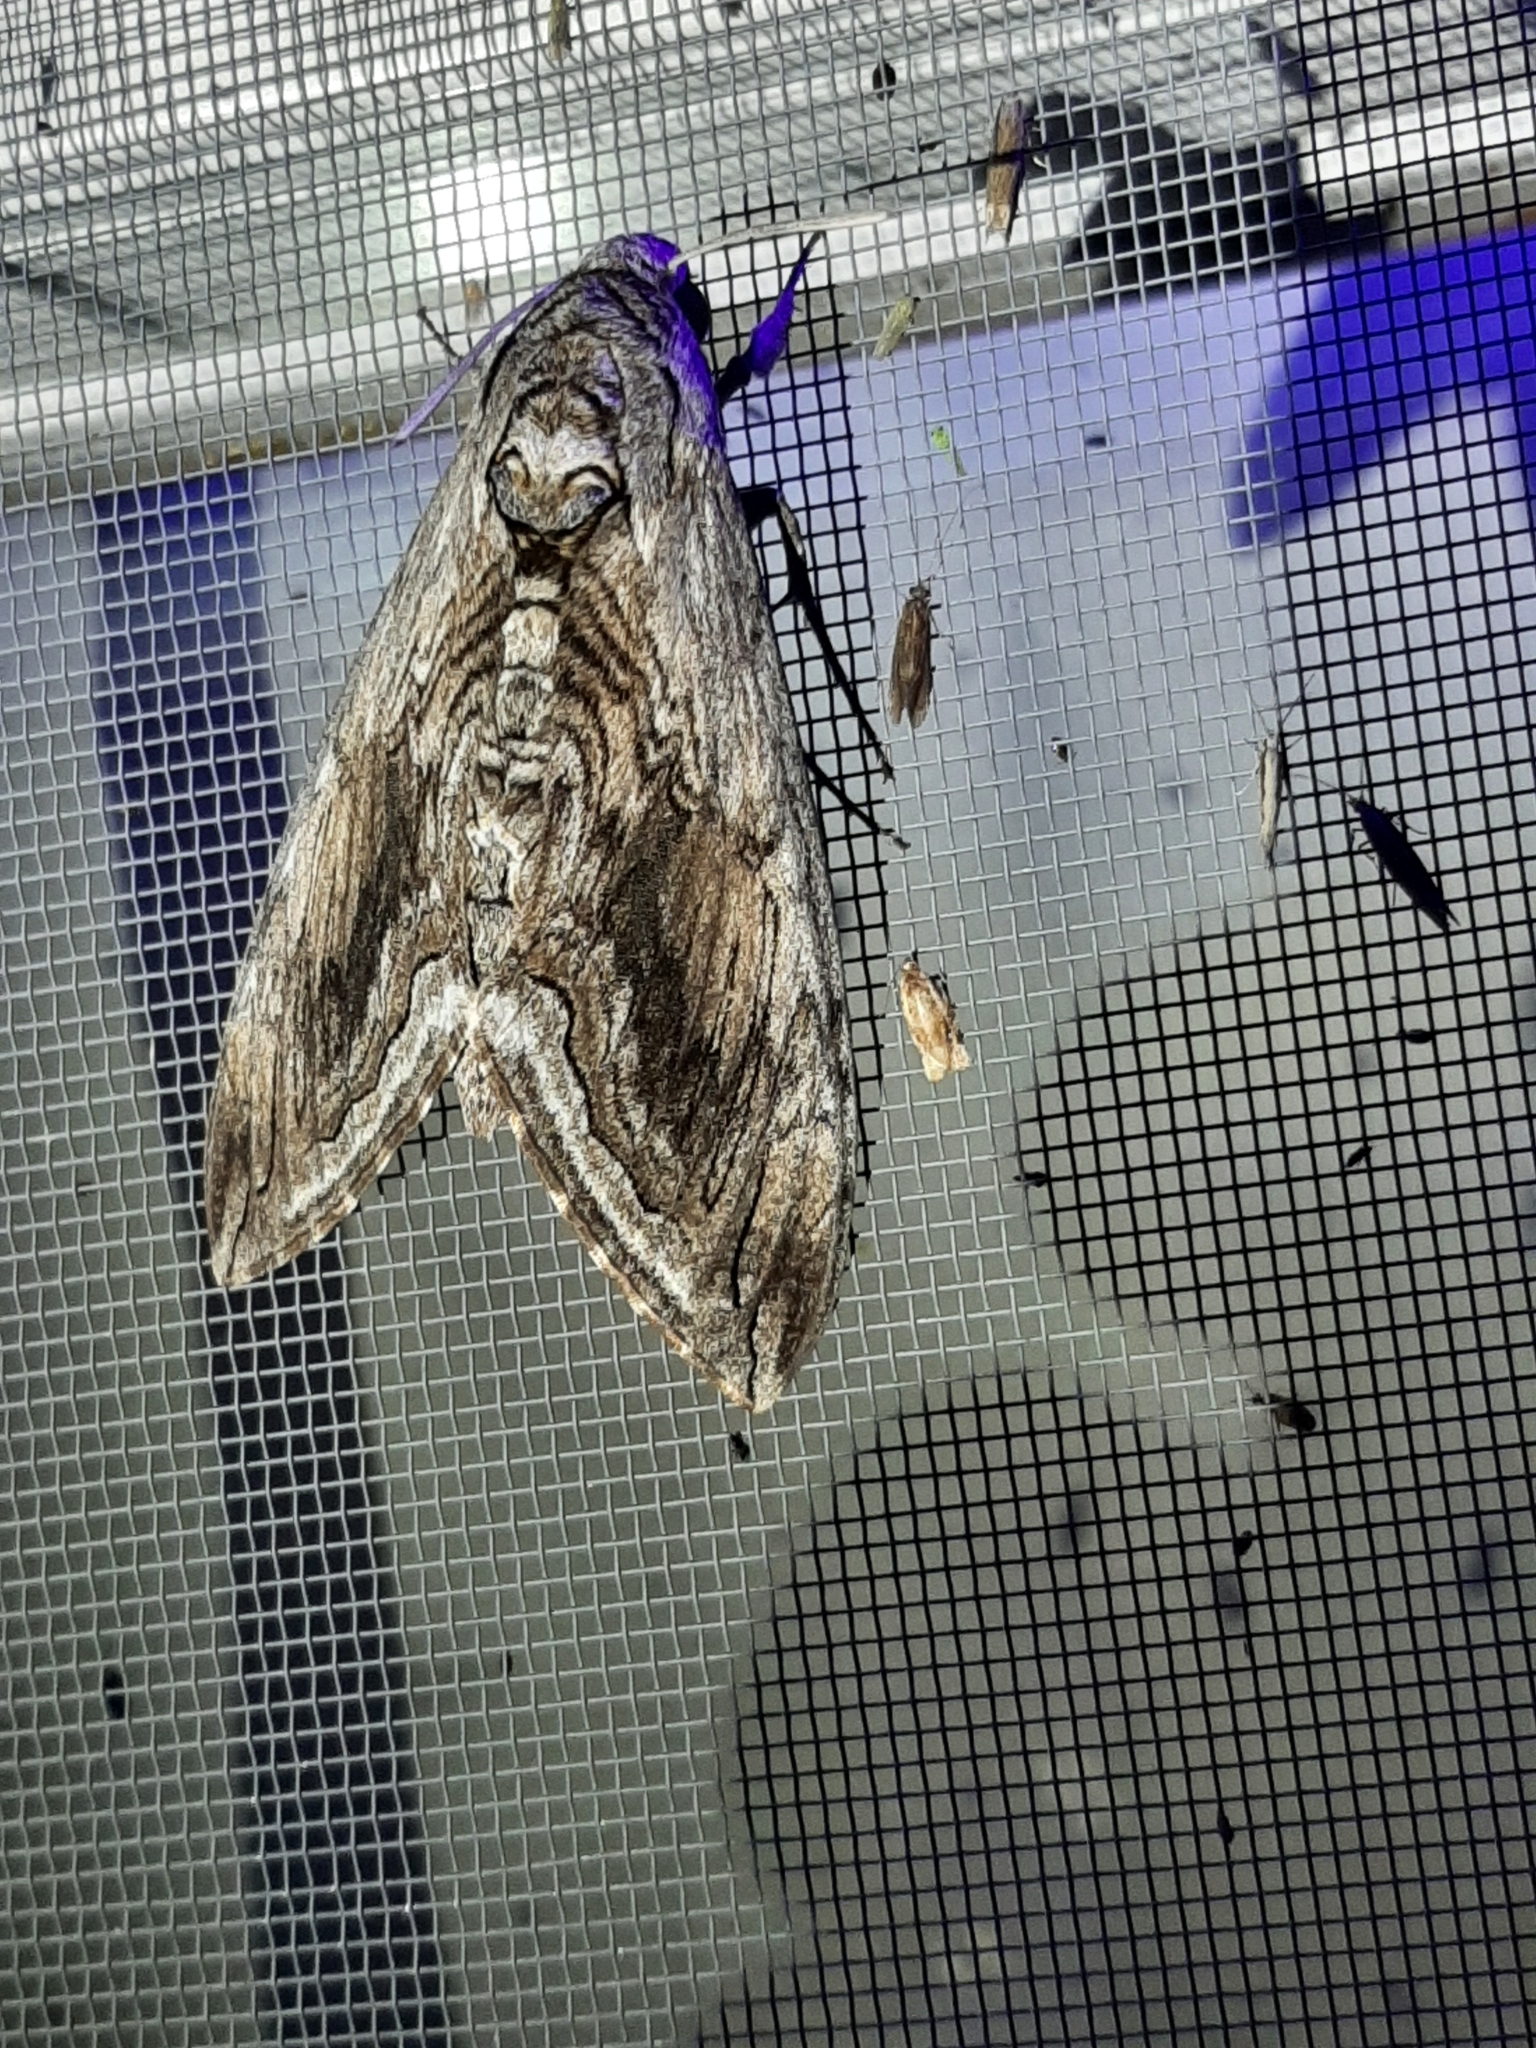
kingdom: Animalia
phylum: Arthropoda
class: Insecta
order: Lepidoptera
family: Sphingidae
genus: Manduca
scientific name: Manduca quinquemaculatus
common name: Five-spotted hawk-moth
